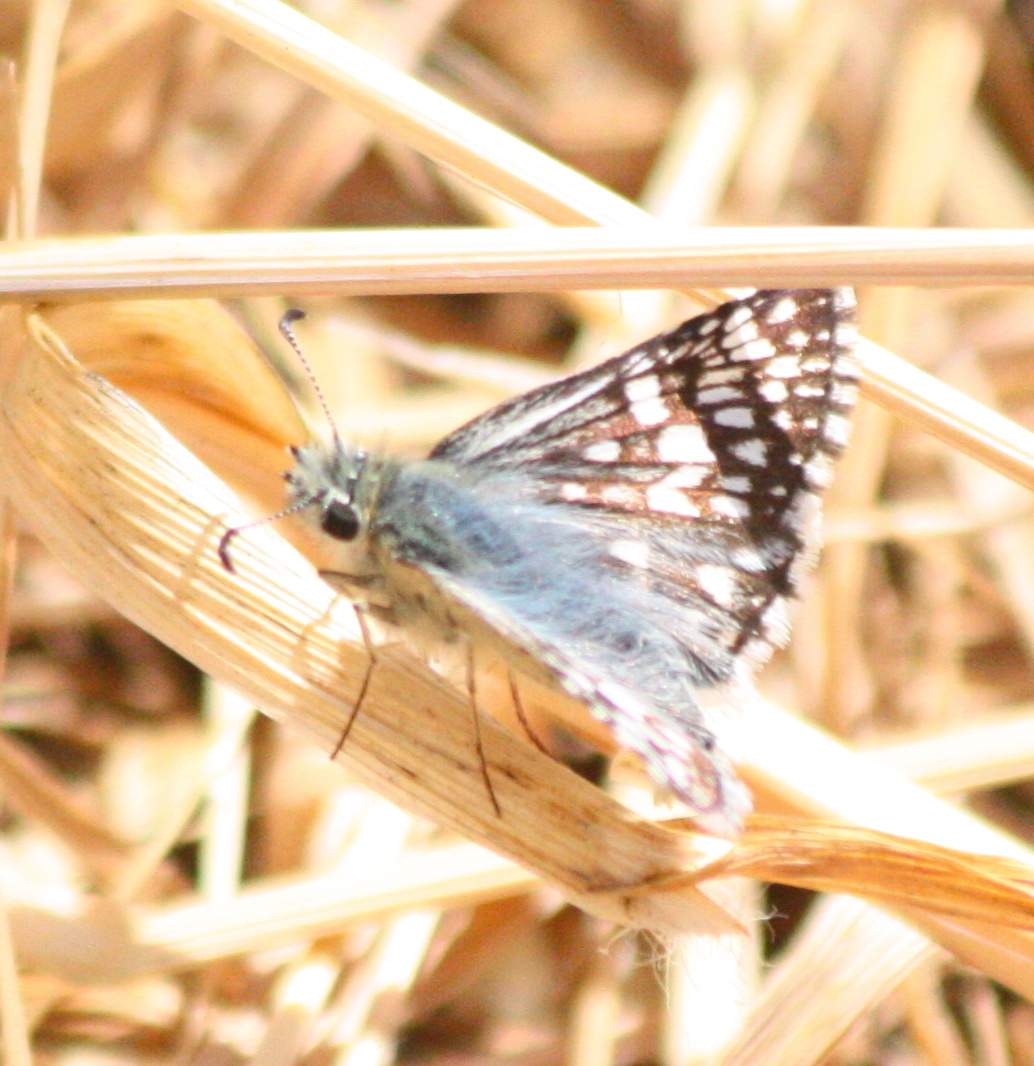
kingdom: Animalia
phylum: Arthropoda
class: Insecta
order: Lepidoptera
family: Hesperiidae
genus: Burnsius
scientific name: Burnsius communis
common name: Common checkered-skipper
